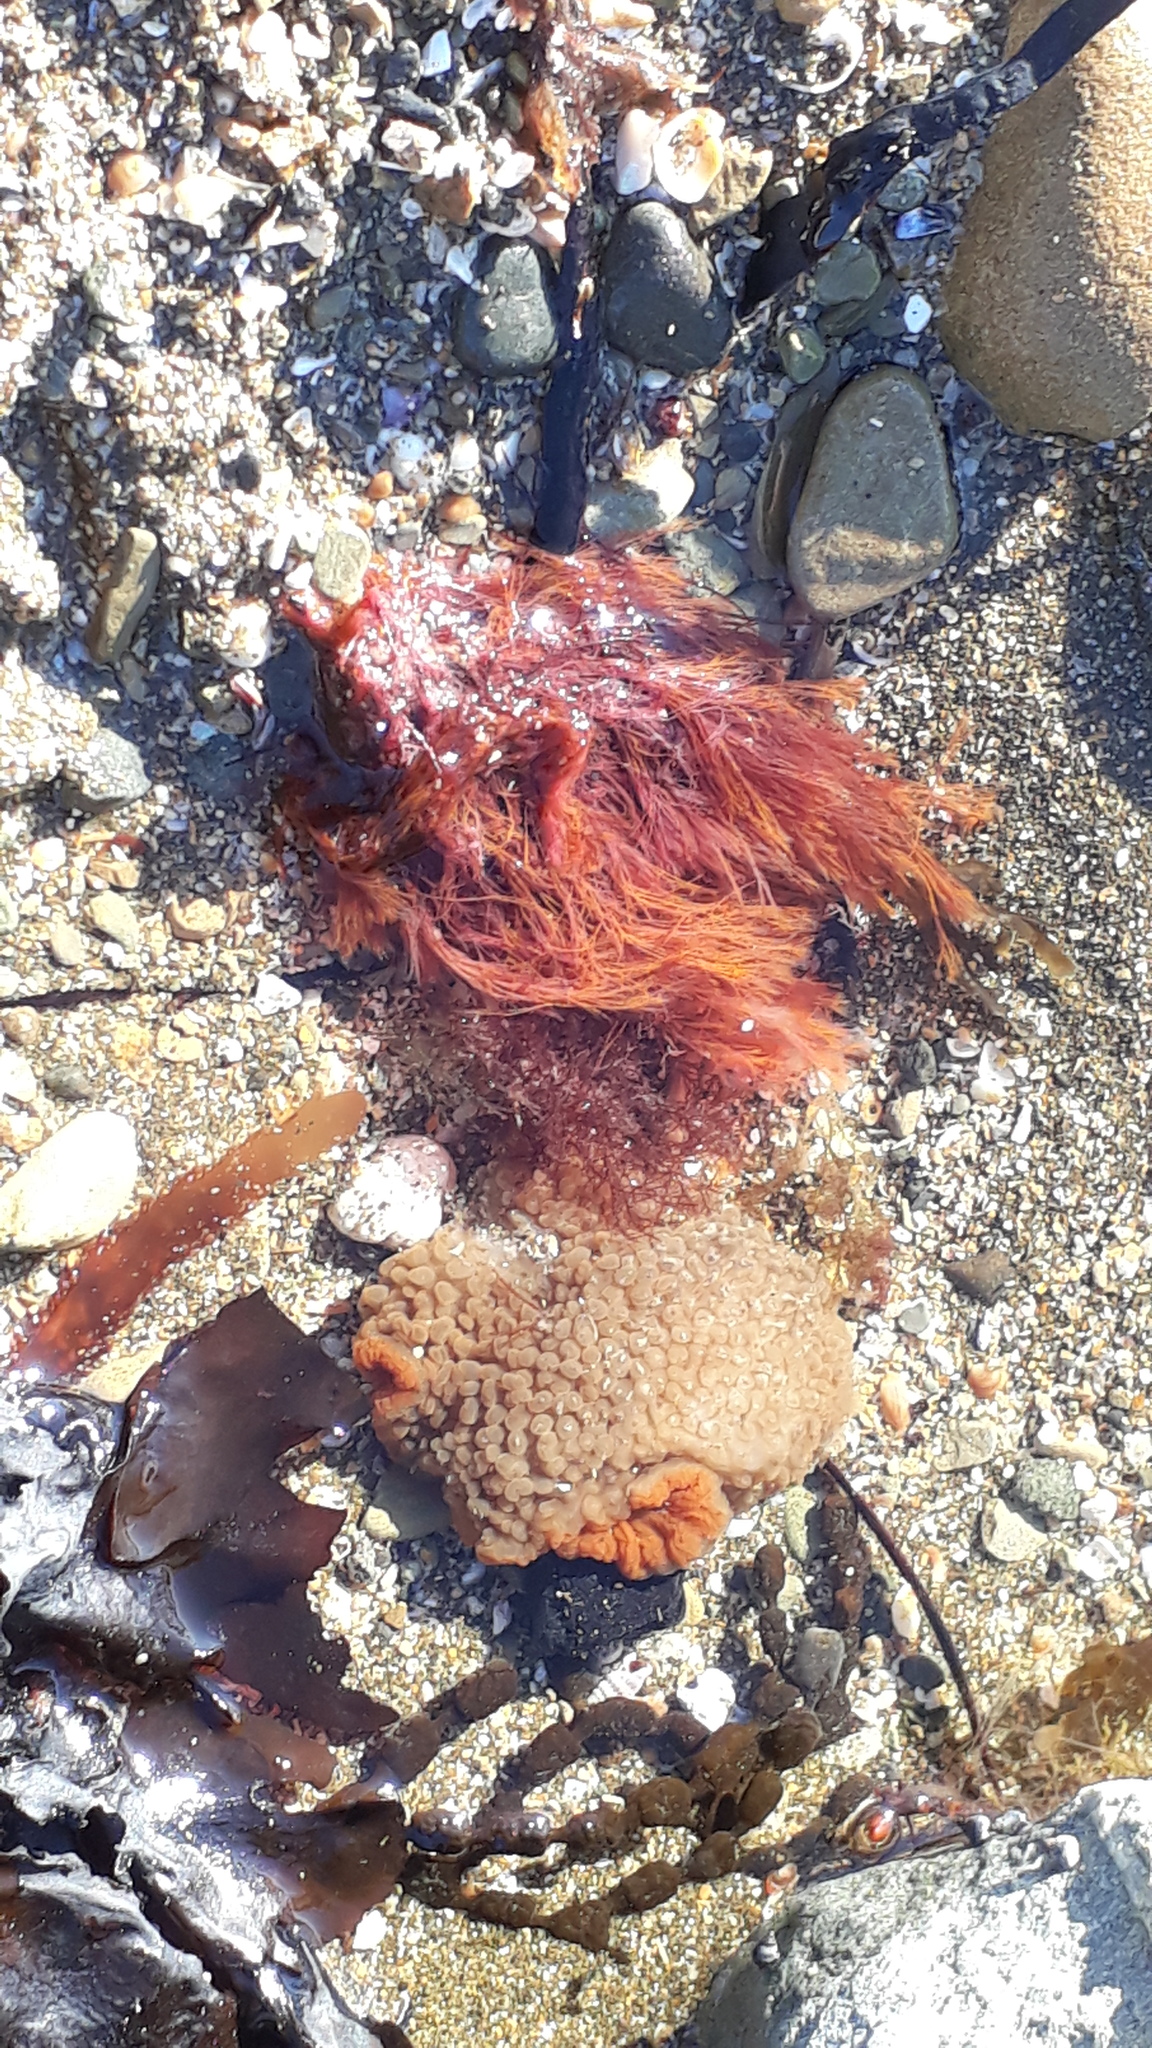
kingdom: Plantae
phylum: Rhodophyta
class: Florideophyceae
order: Ceramiales
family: Wrangeliaceae
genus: Anotrichium
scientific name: Anotrichium crinitum
